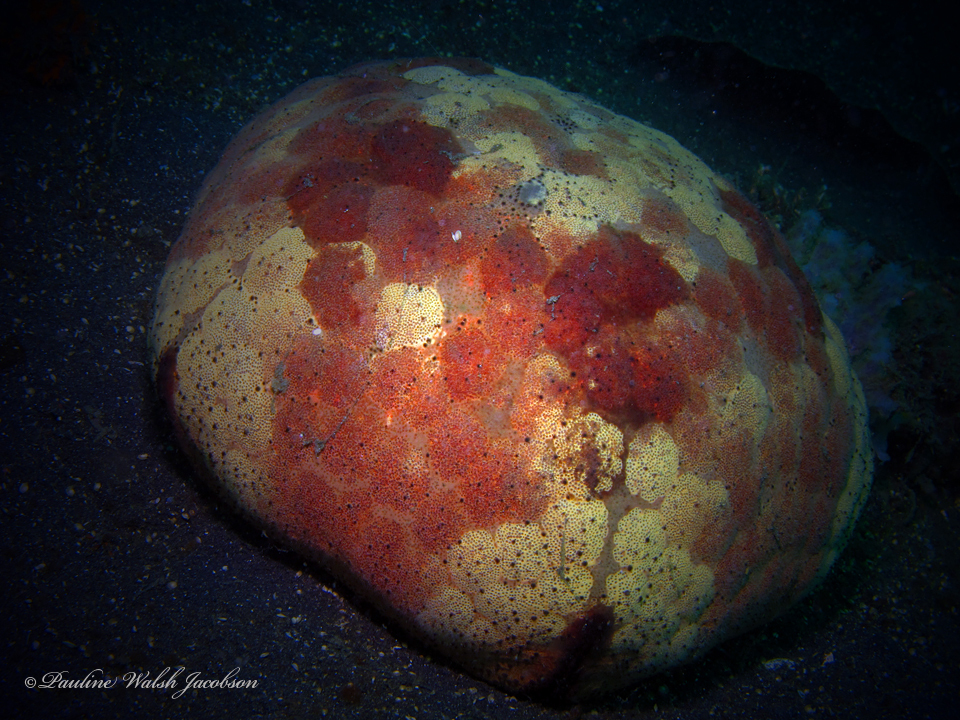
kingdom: Animalia
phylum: Echinodermata
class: Asteroidea
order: Valvatida
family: Oreasteridae
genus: Culcita
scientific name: Culcita novaeguineae
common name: Cushion star
